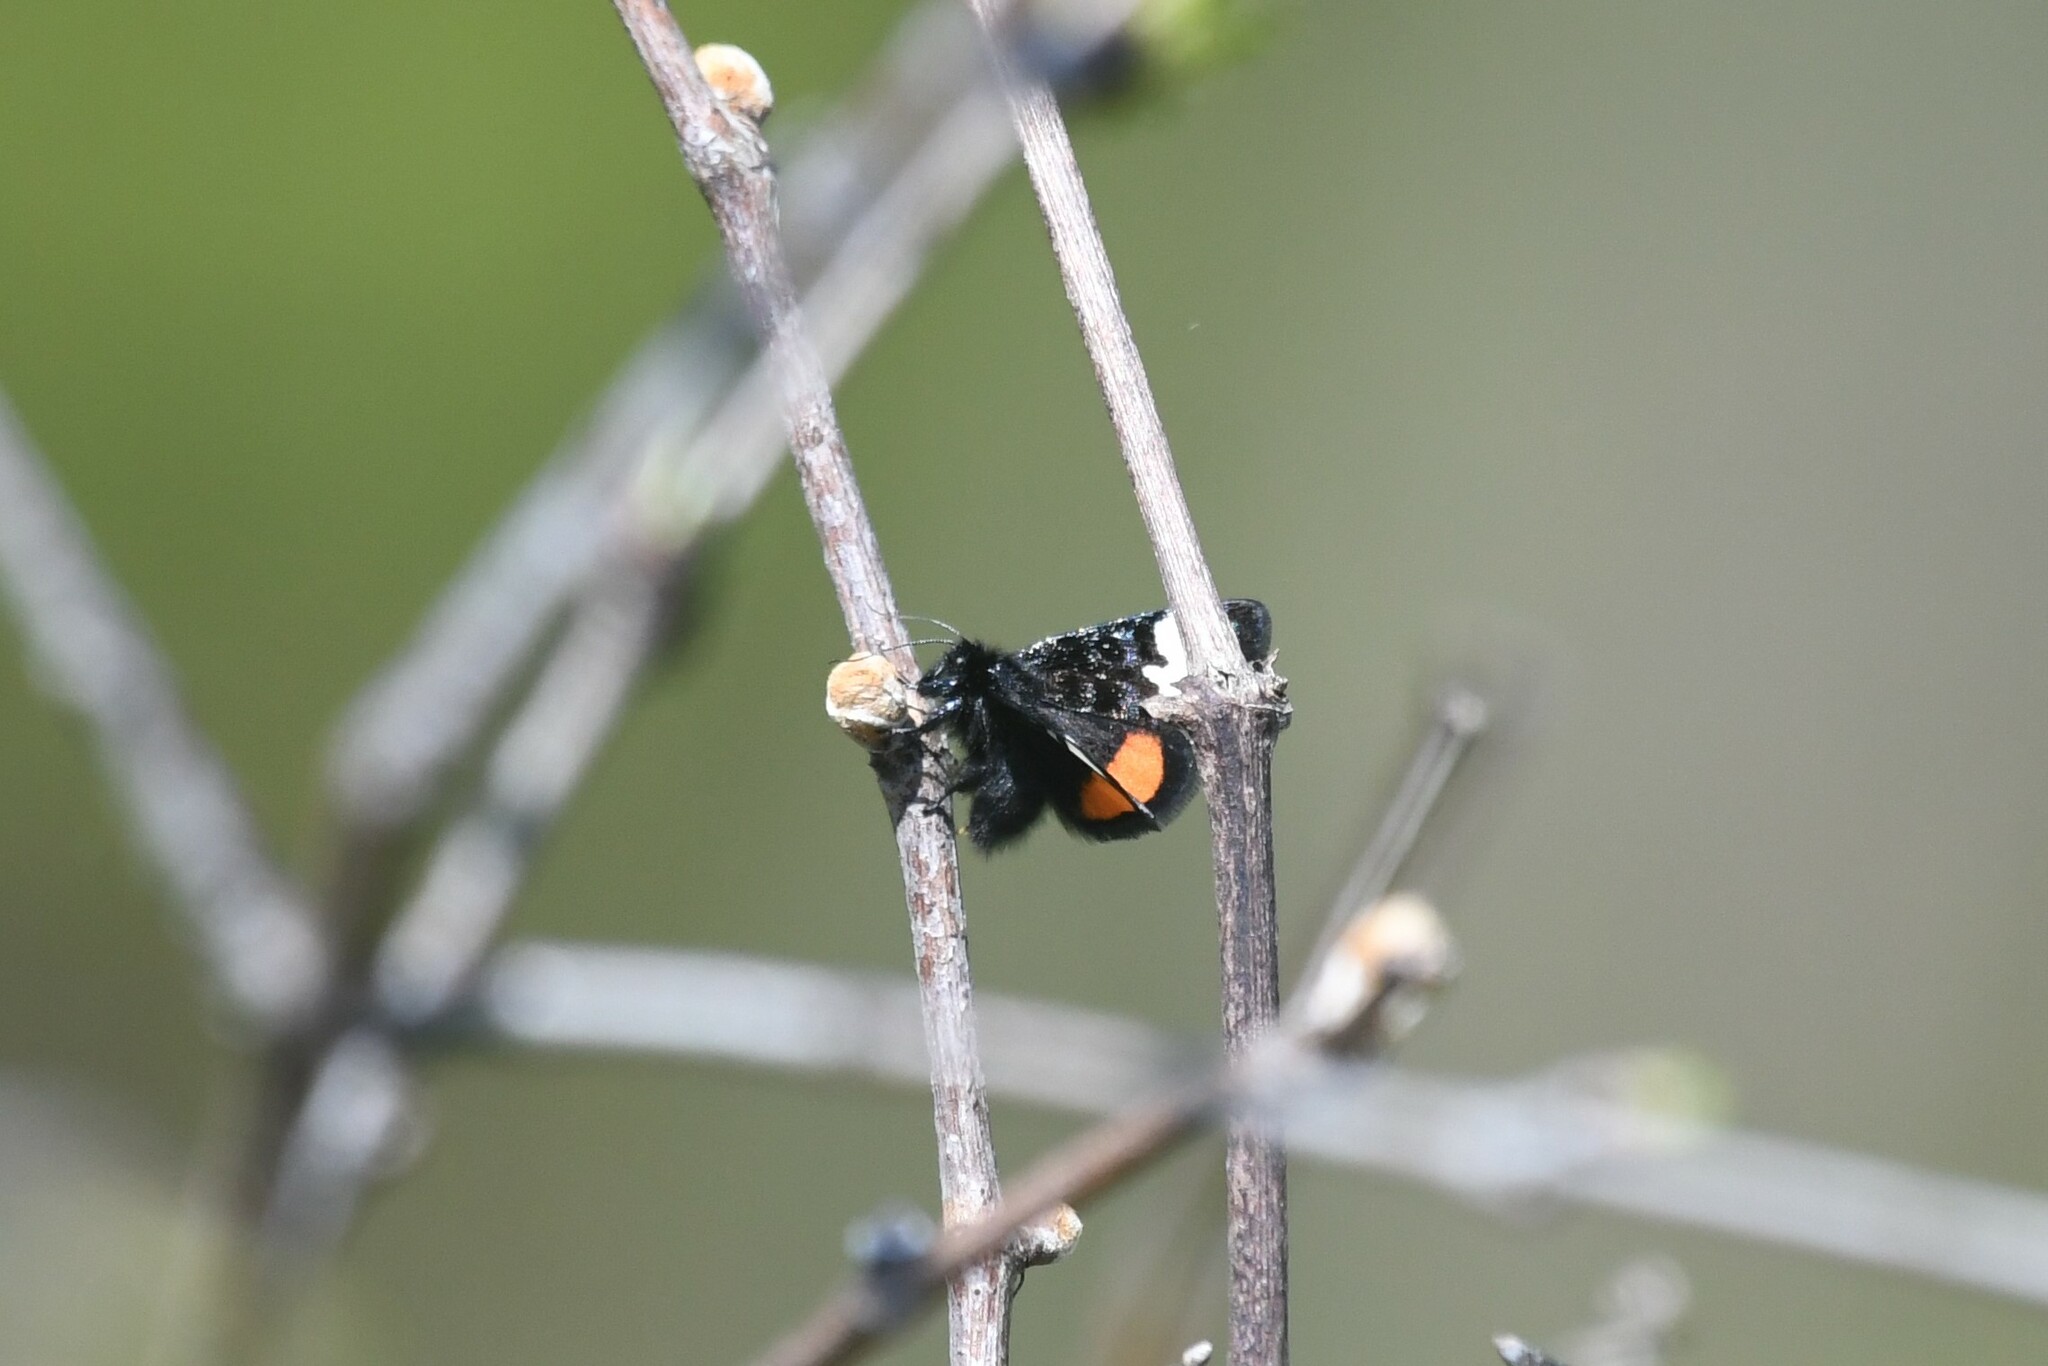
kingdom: Animalia
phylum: Arthropoda
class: Insecta
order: Lepidoptera
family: Noctuidae
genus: Psychomorpha
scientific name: Psychomorpha epimenis
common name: Grapevine epimenis moth
